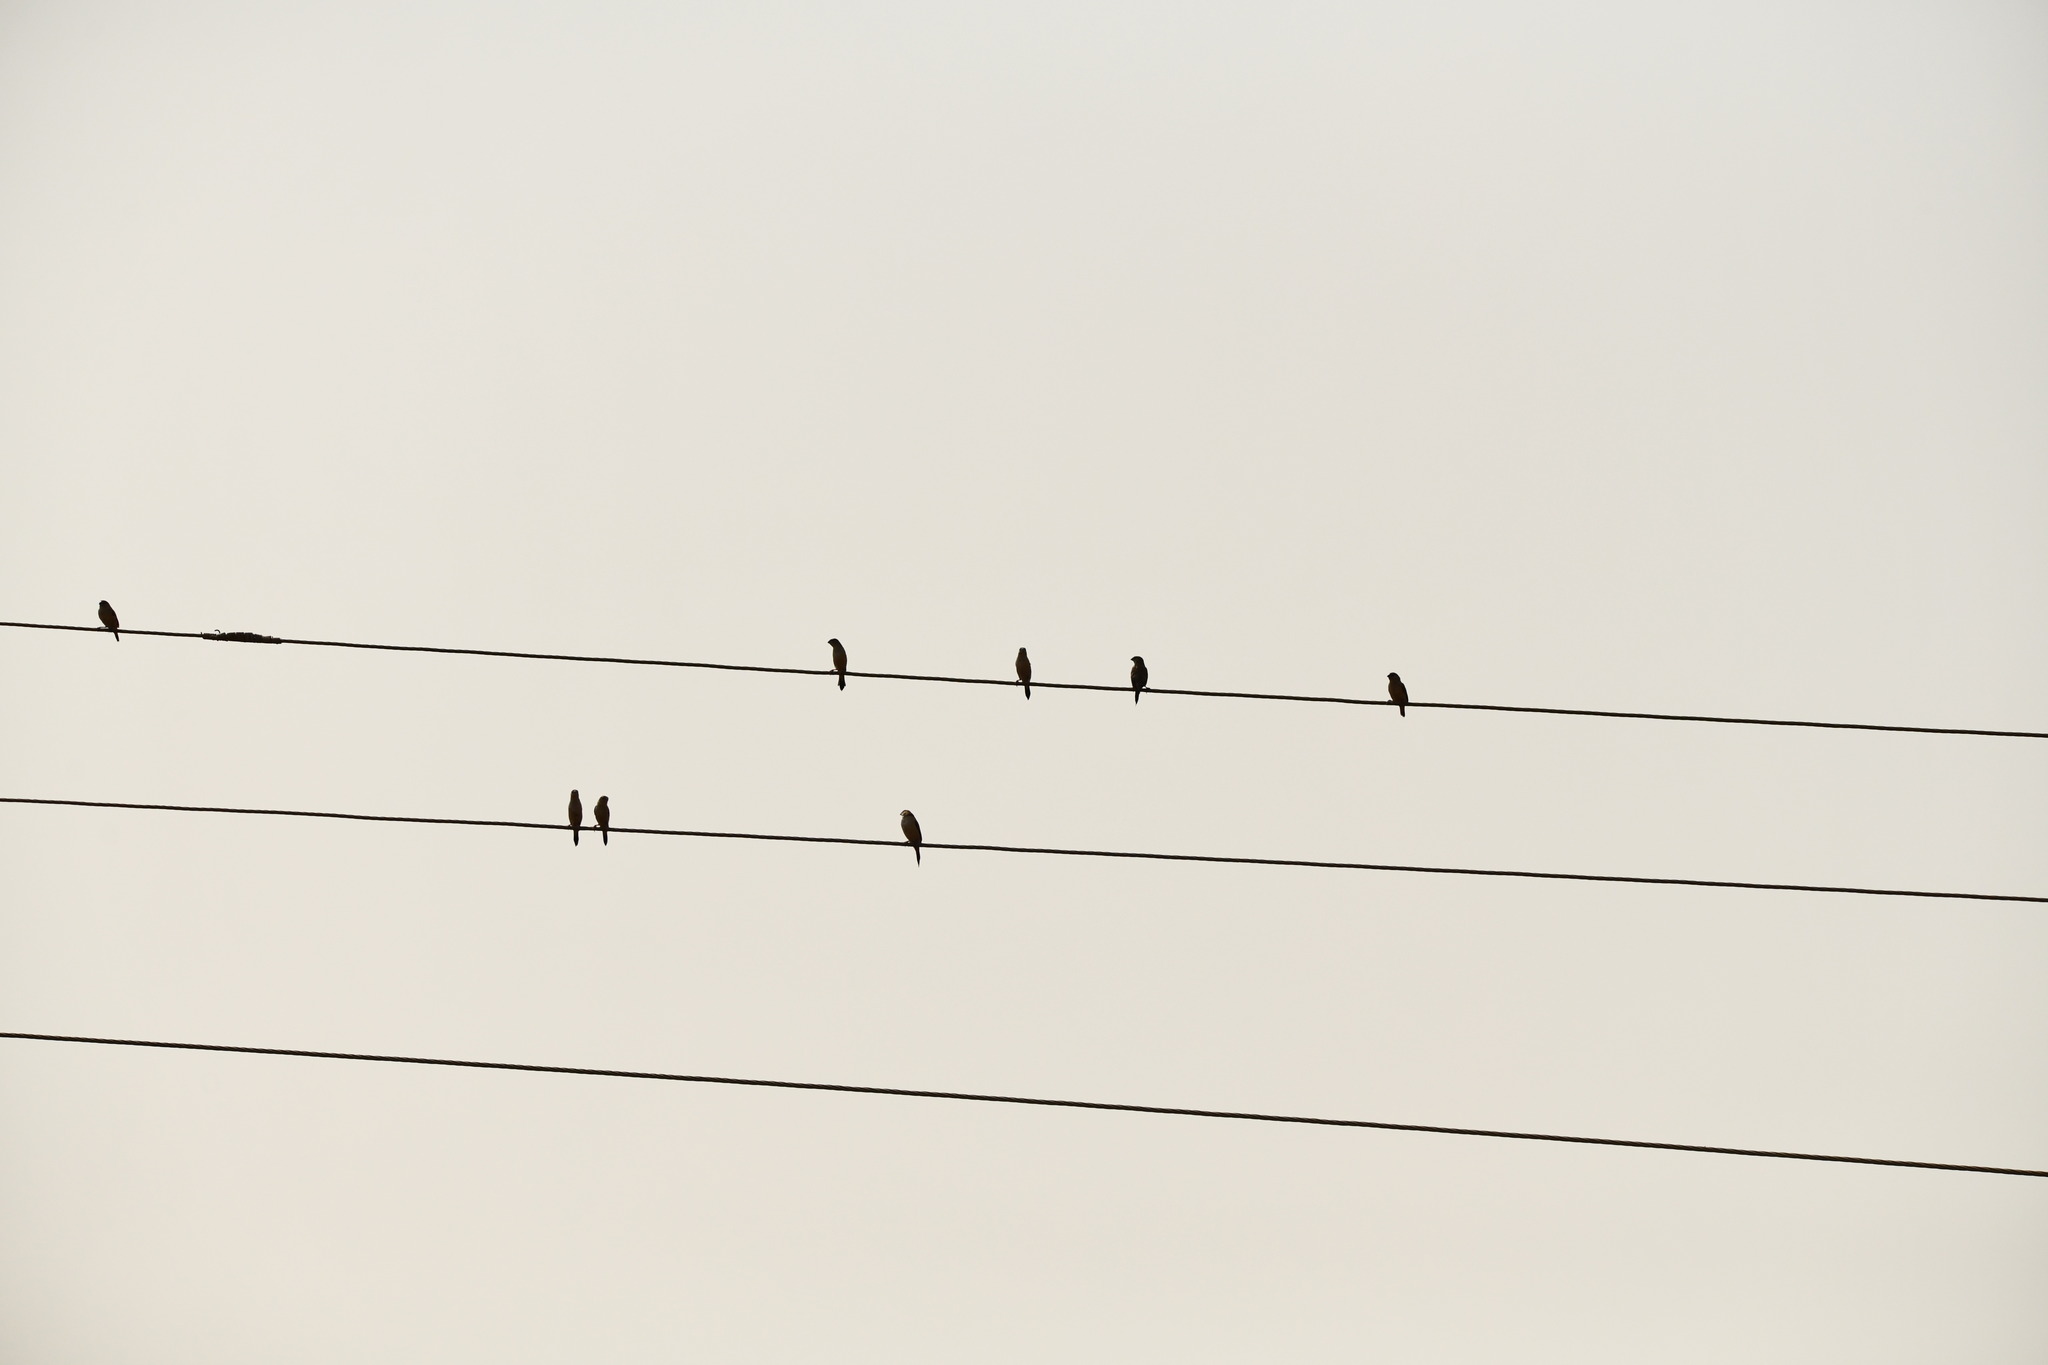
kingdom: Animalia
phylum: Chordata
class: Aves
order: Passeriformes
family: Estrildidae
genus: Euodice
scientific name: Euodice malabarica
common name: Indian silverbill
